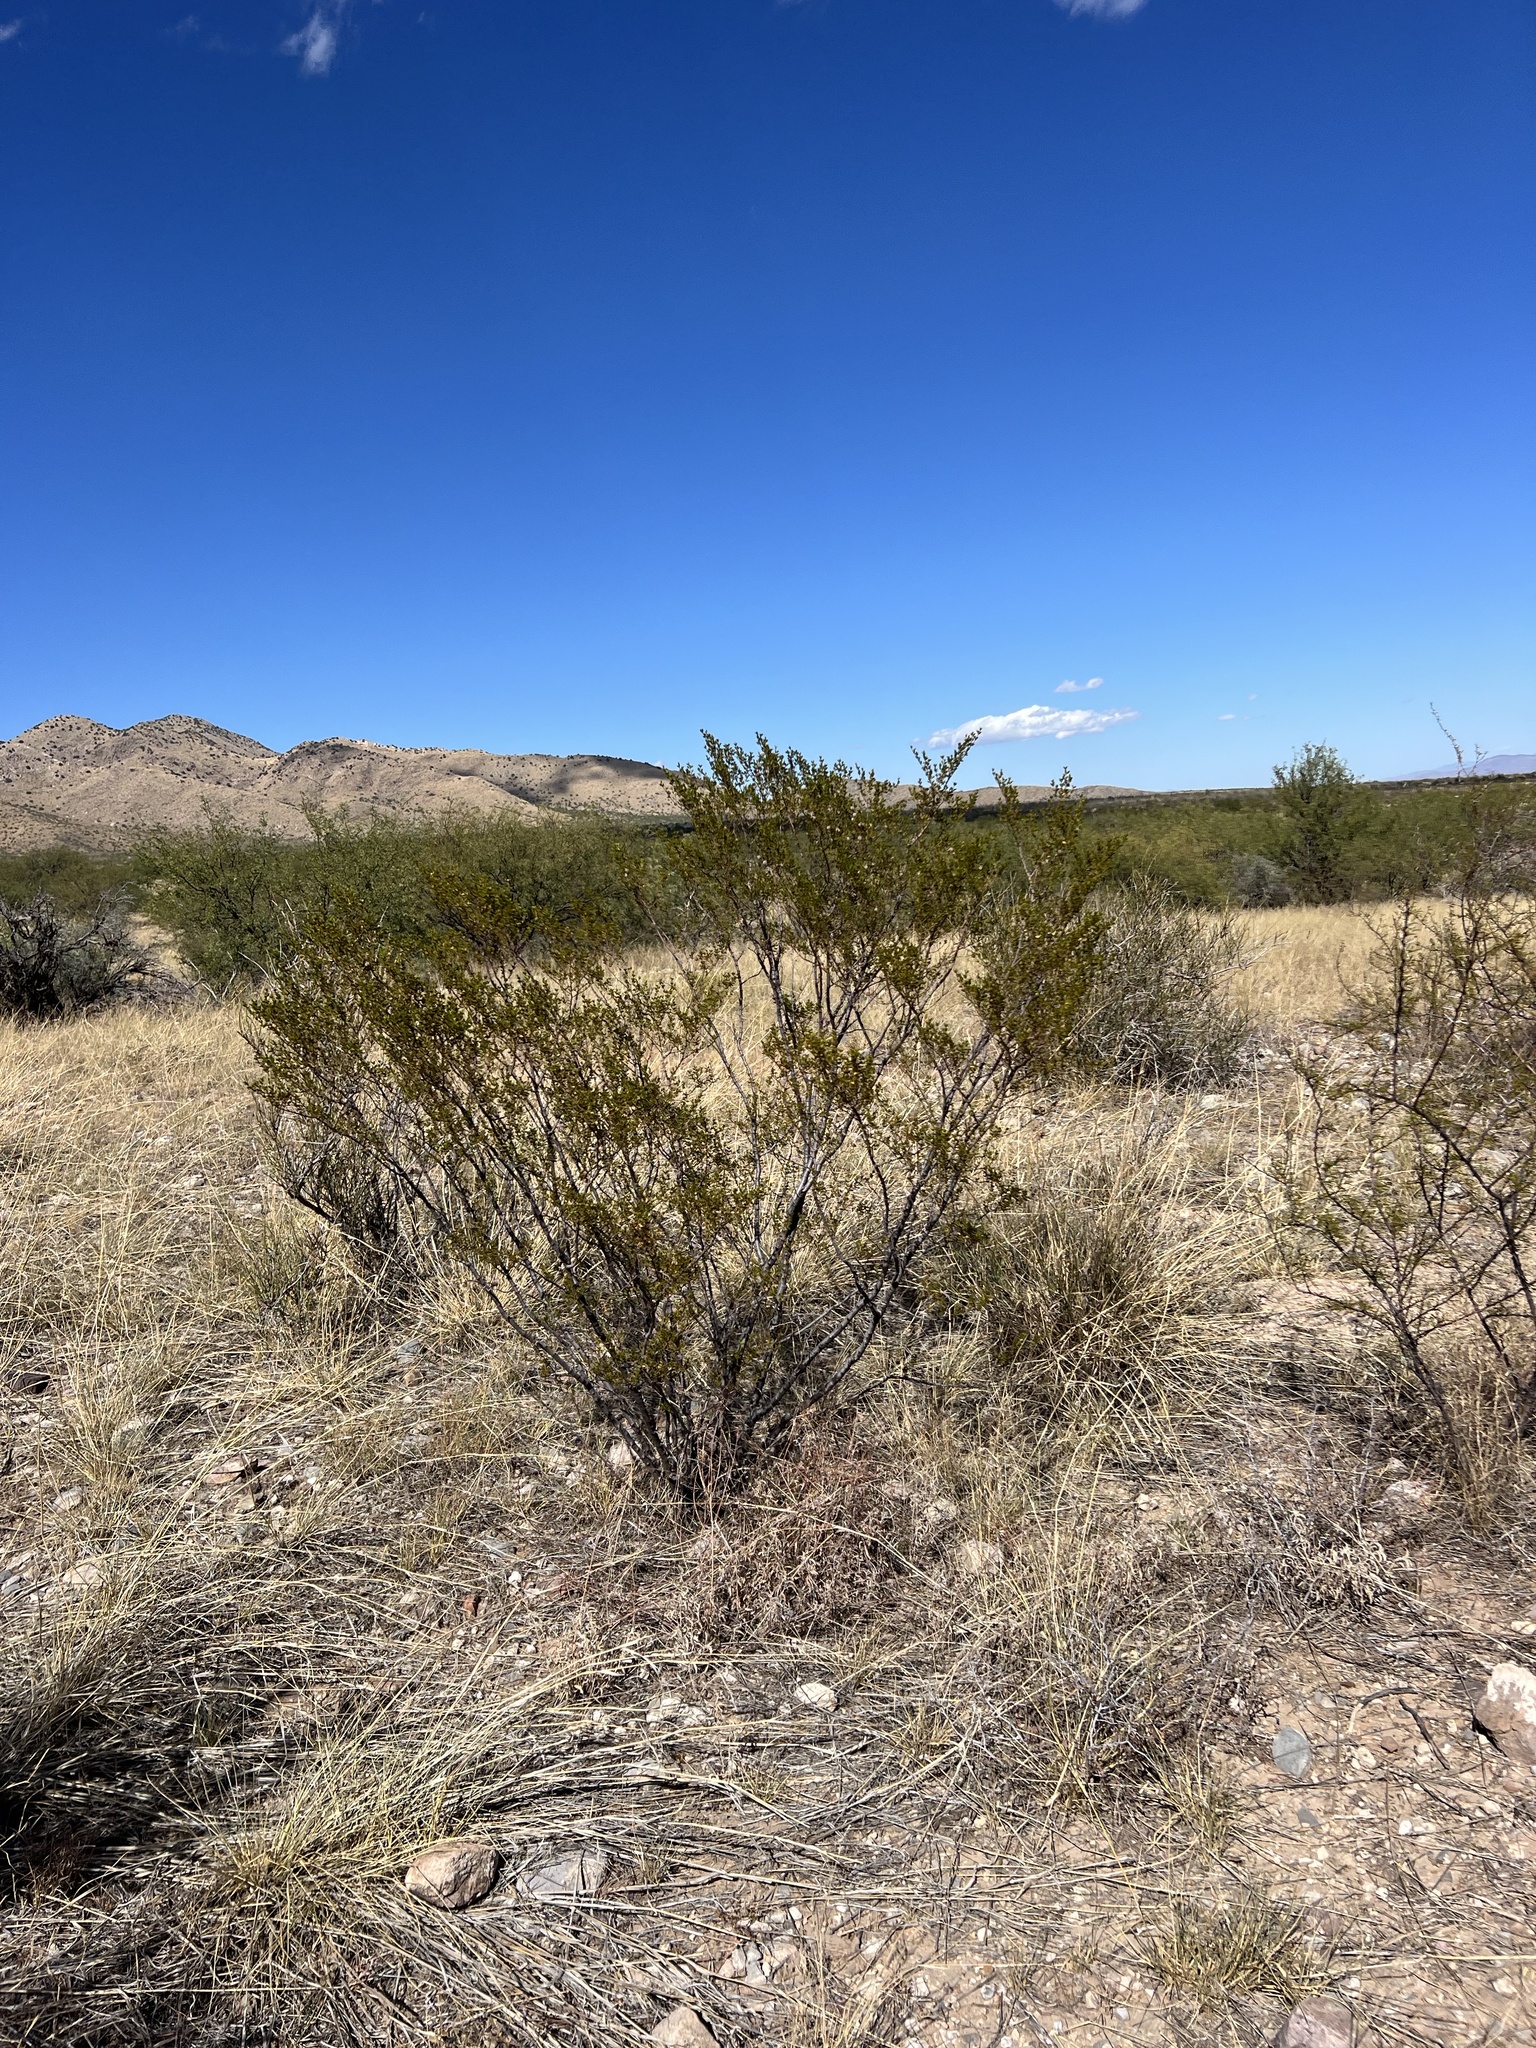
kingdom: Plantae
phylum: Tracheophyta
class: Magnoliopsida
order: Zygophyllales
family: Zygophyllaceae
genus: Larrea
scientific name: Larrea tridentata
